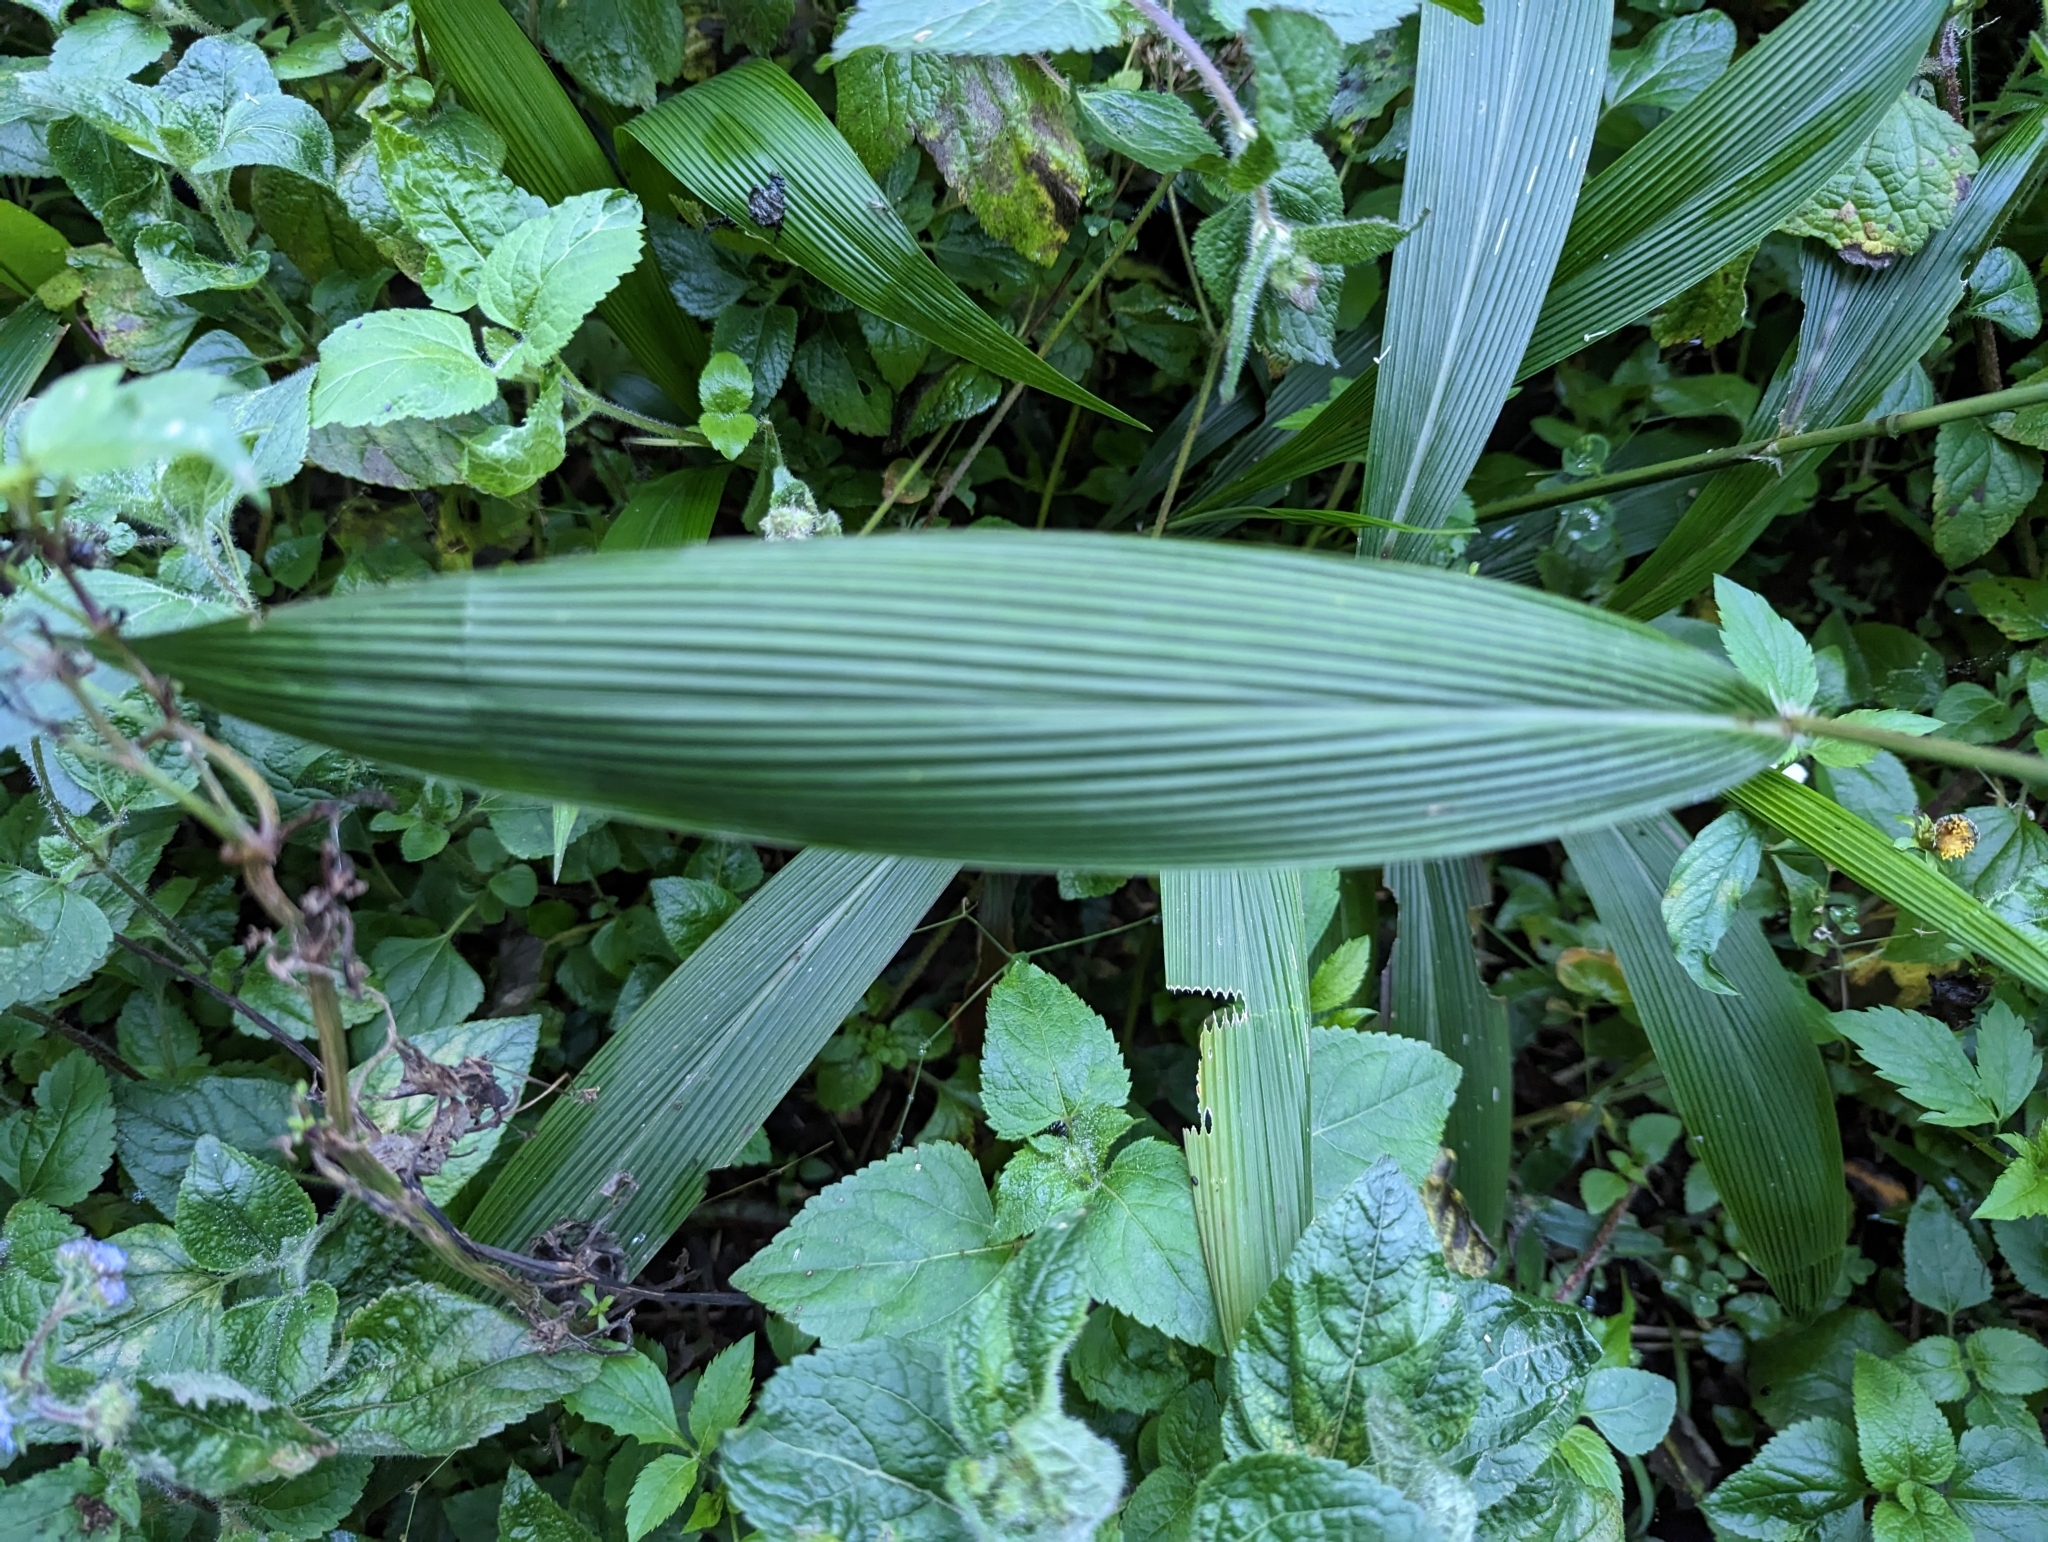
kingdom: Plantae
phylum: Tracheophyta
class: Liliopsida
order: Poales
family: Poaceae
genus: Setaria
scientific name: Setaria palmifolia
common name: Broadleaved bristlegrass
